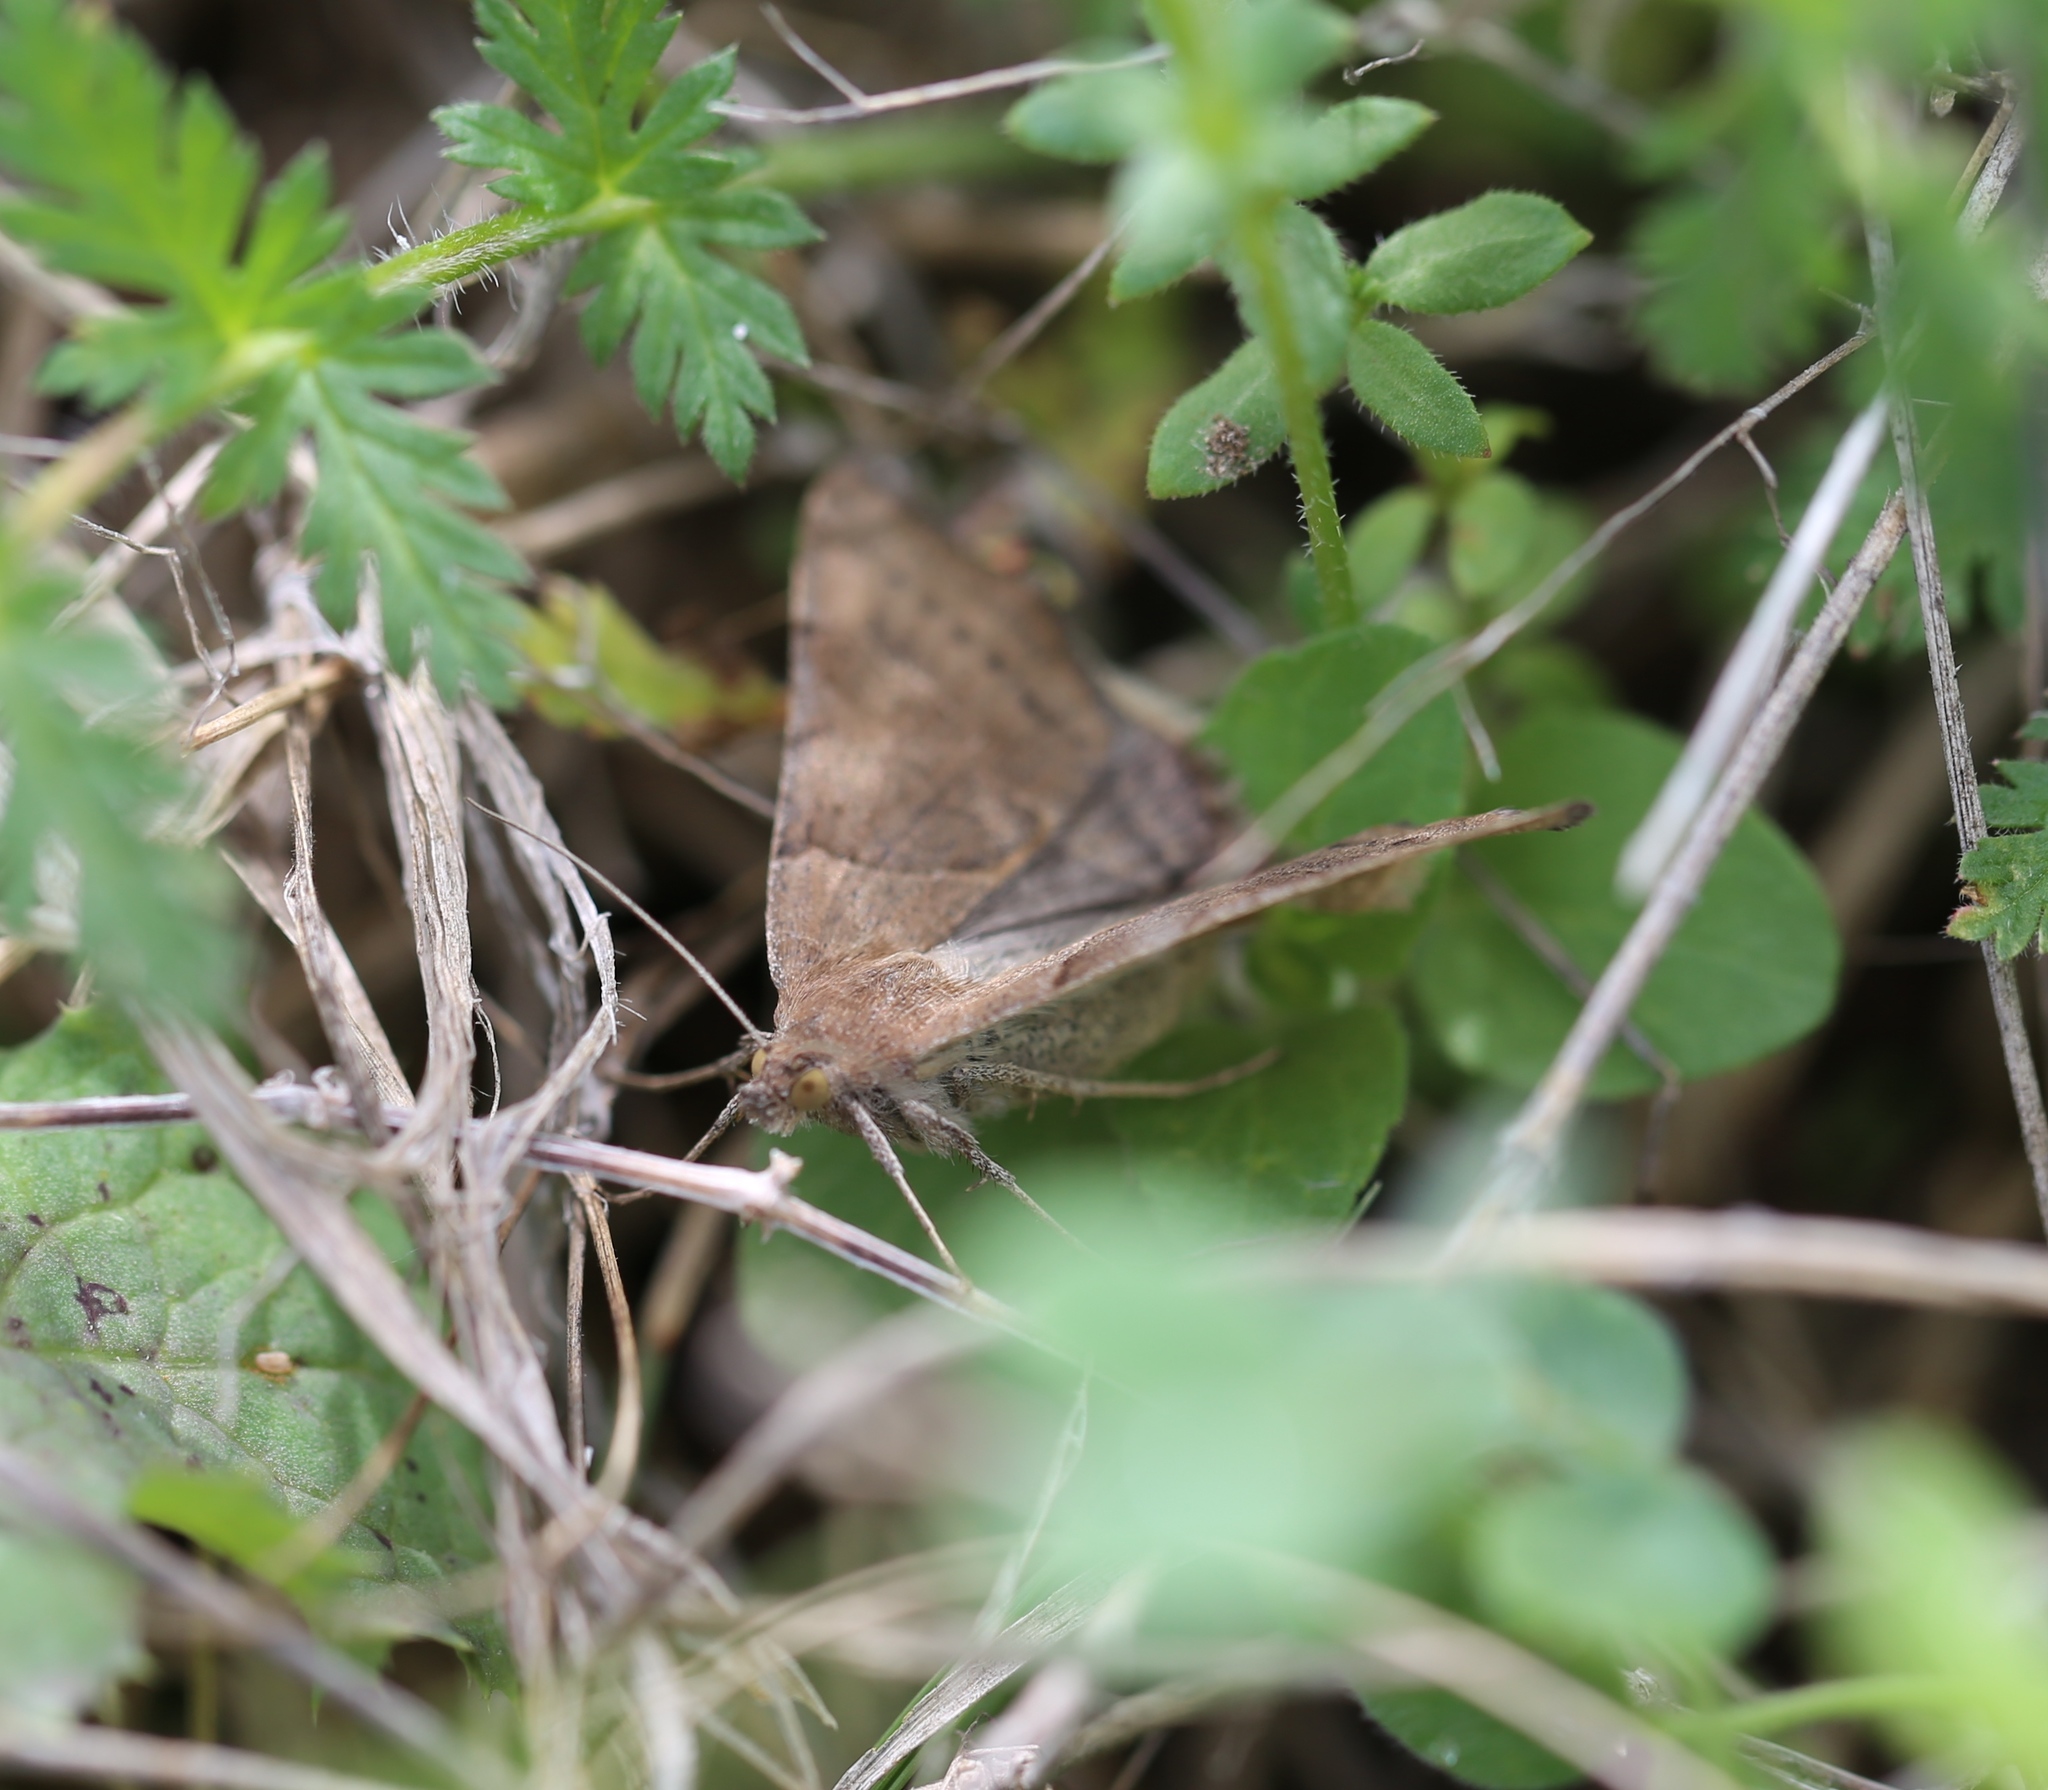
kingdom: Animalia
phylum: Arthropoda
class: Insecta
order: Lepidoptera
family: Erebidae
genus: Caenurgina
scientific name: Caenurgina erechtea
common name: Forage looper moth
